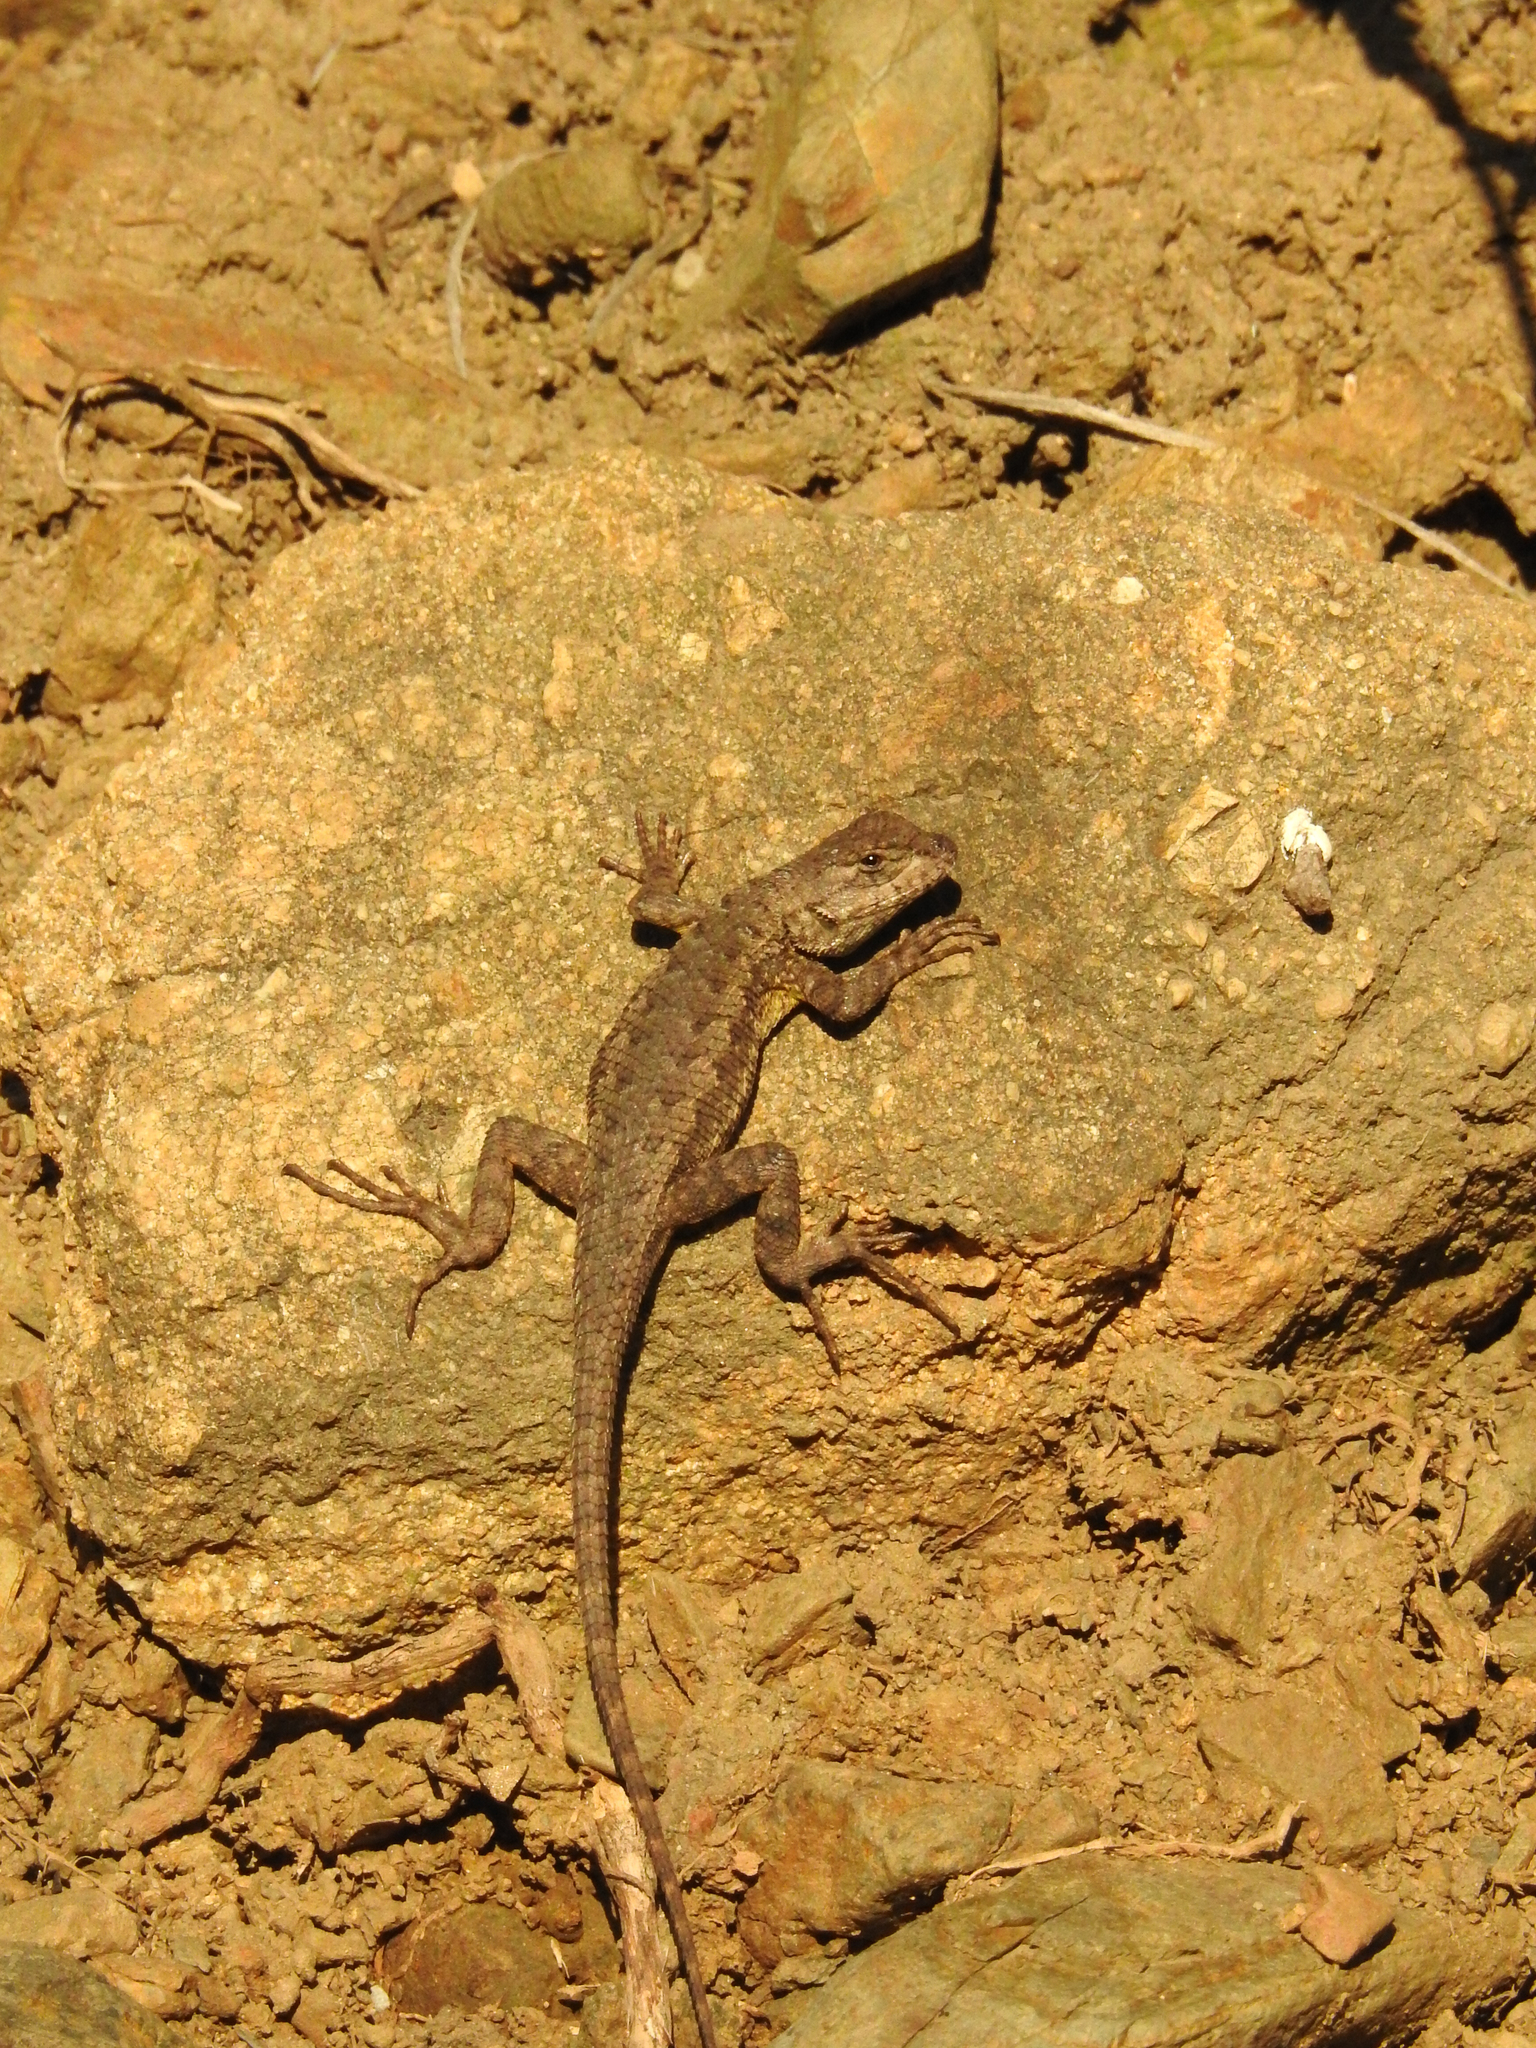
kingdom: Animalia
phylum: Chordata
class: Squamata
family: Phrynosomatidae
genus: Sceloporus
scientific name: Sceloporus occidentalis
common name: Western fence lizard
